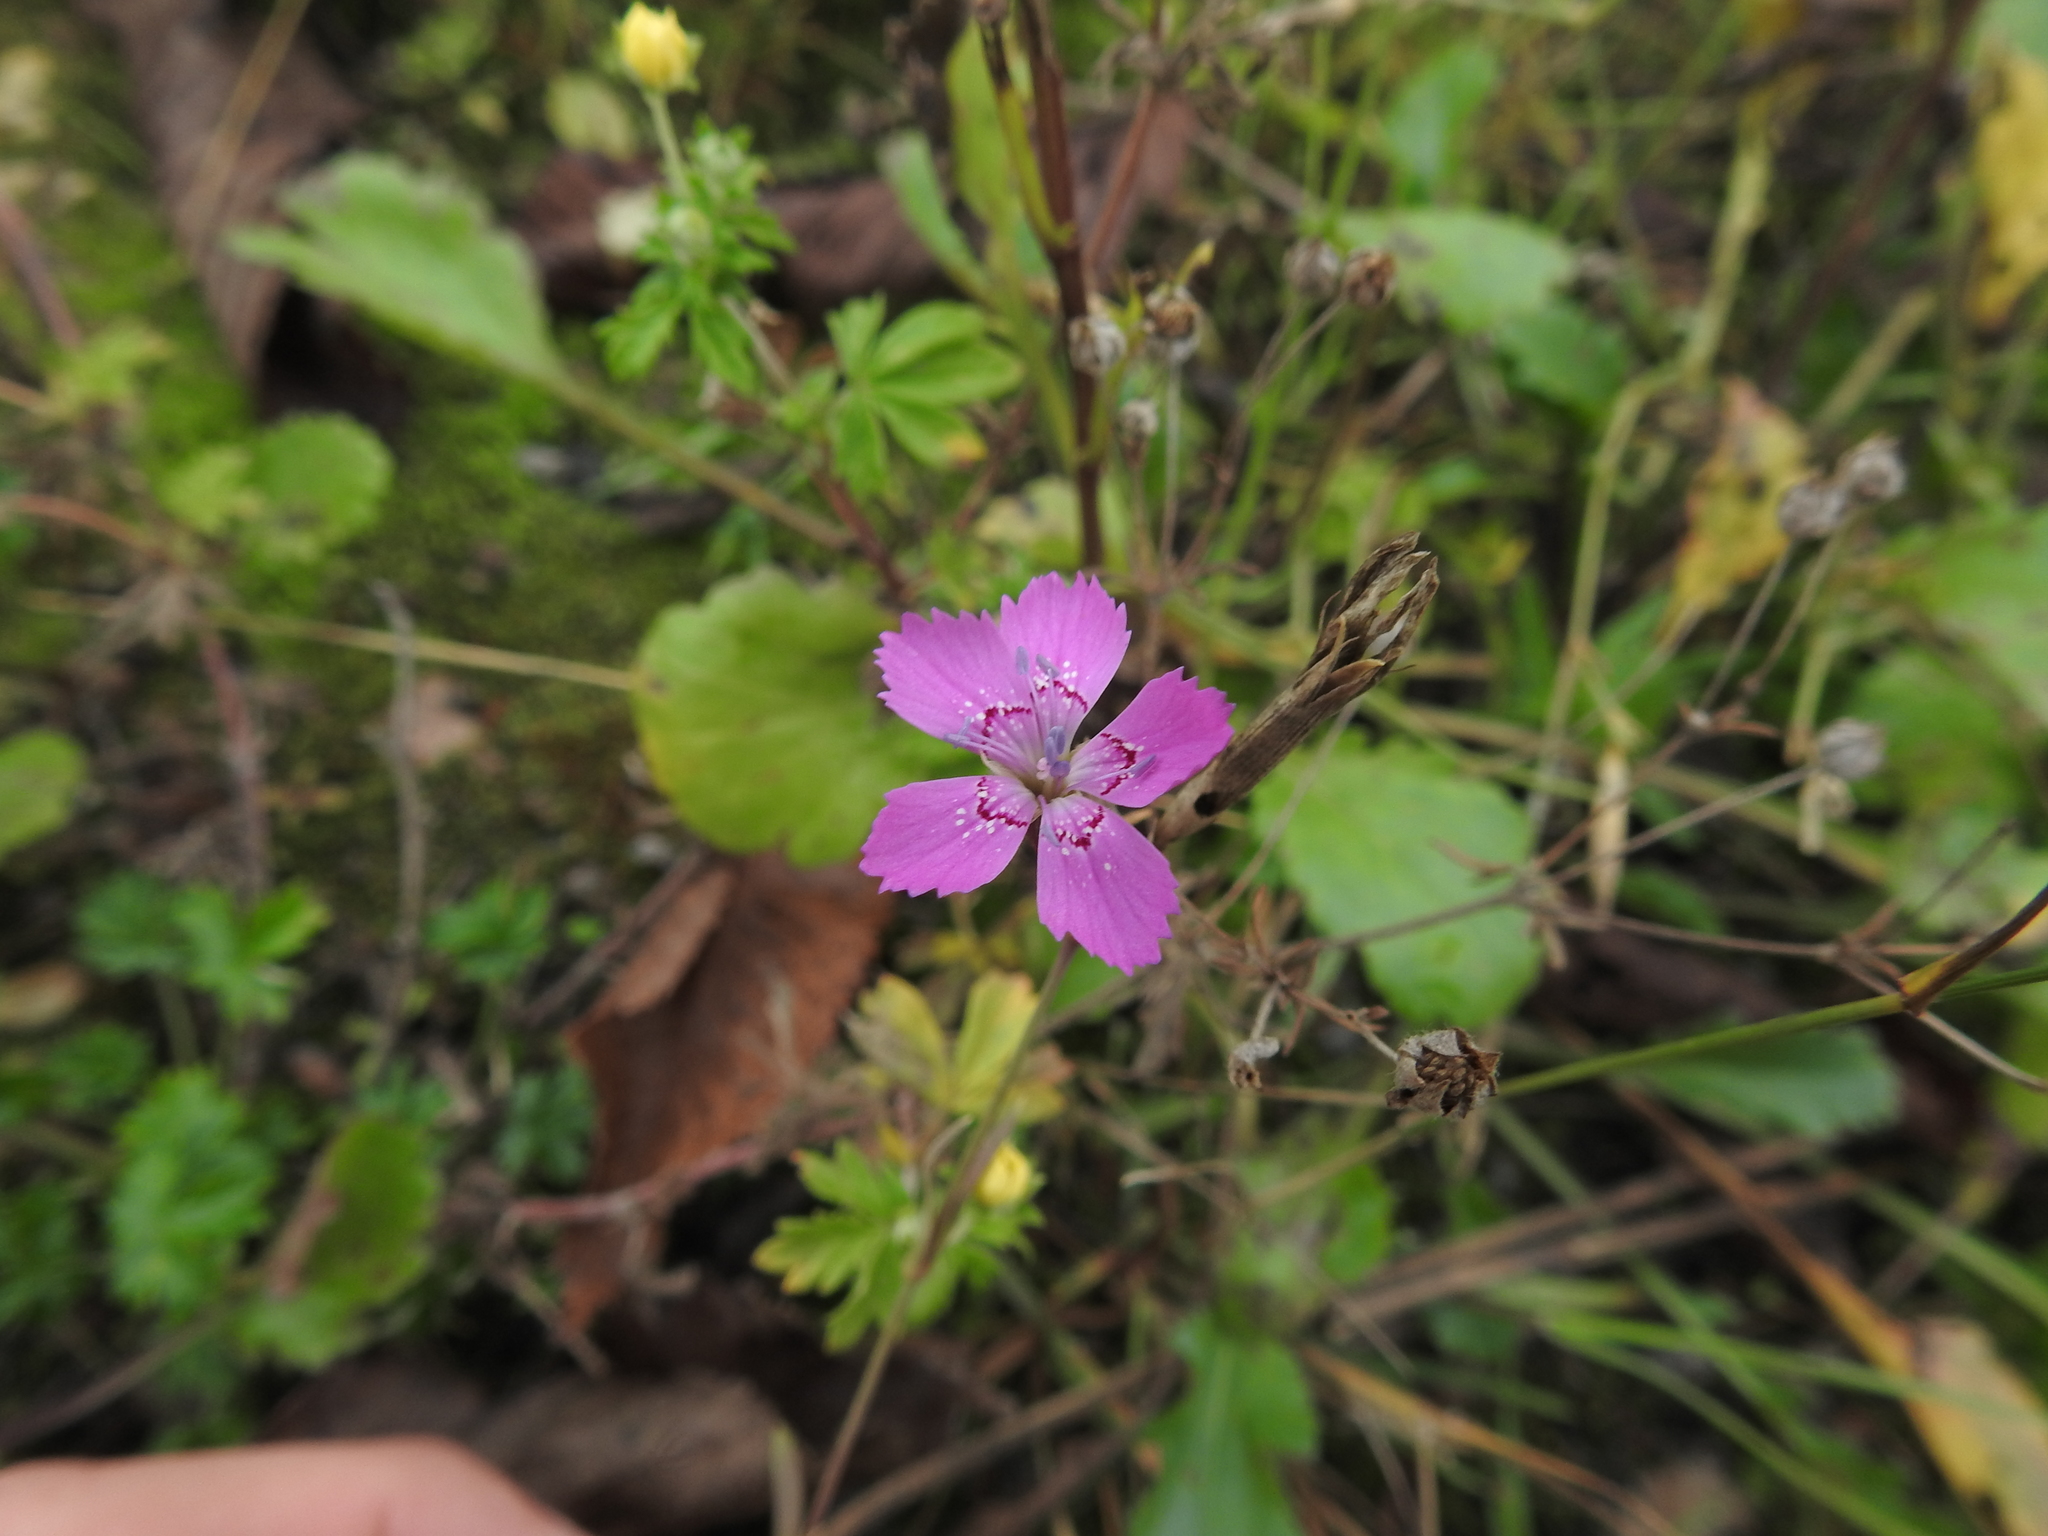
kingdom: Plantae
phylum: Tracheophyta
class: Magnoliopsida
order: Caryophyllales
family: Caryophyllaceae
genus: Dianthus
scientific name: Dianthus deltoides
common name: Maiden pink
